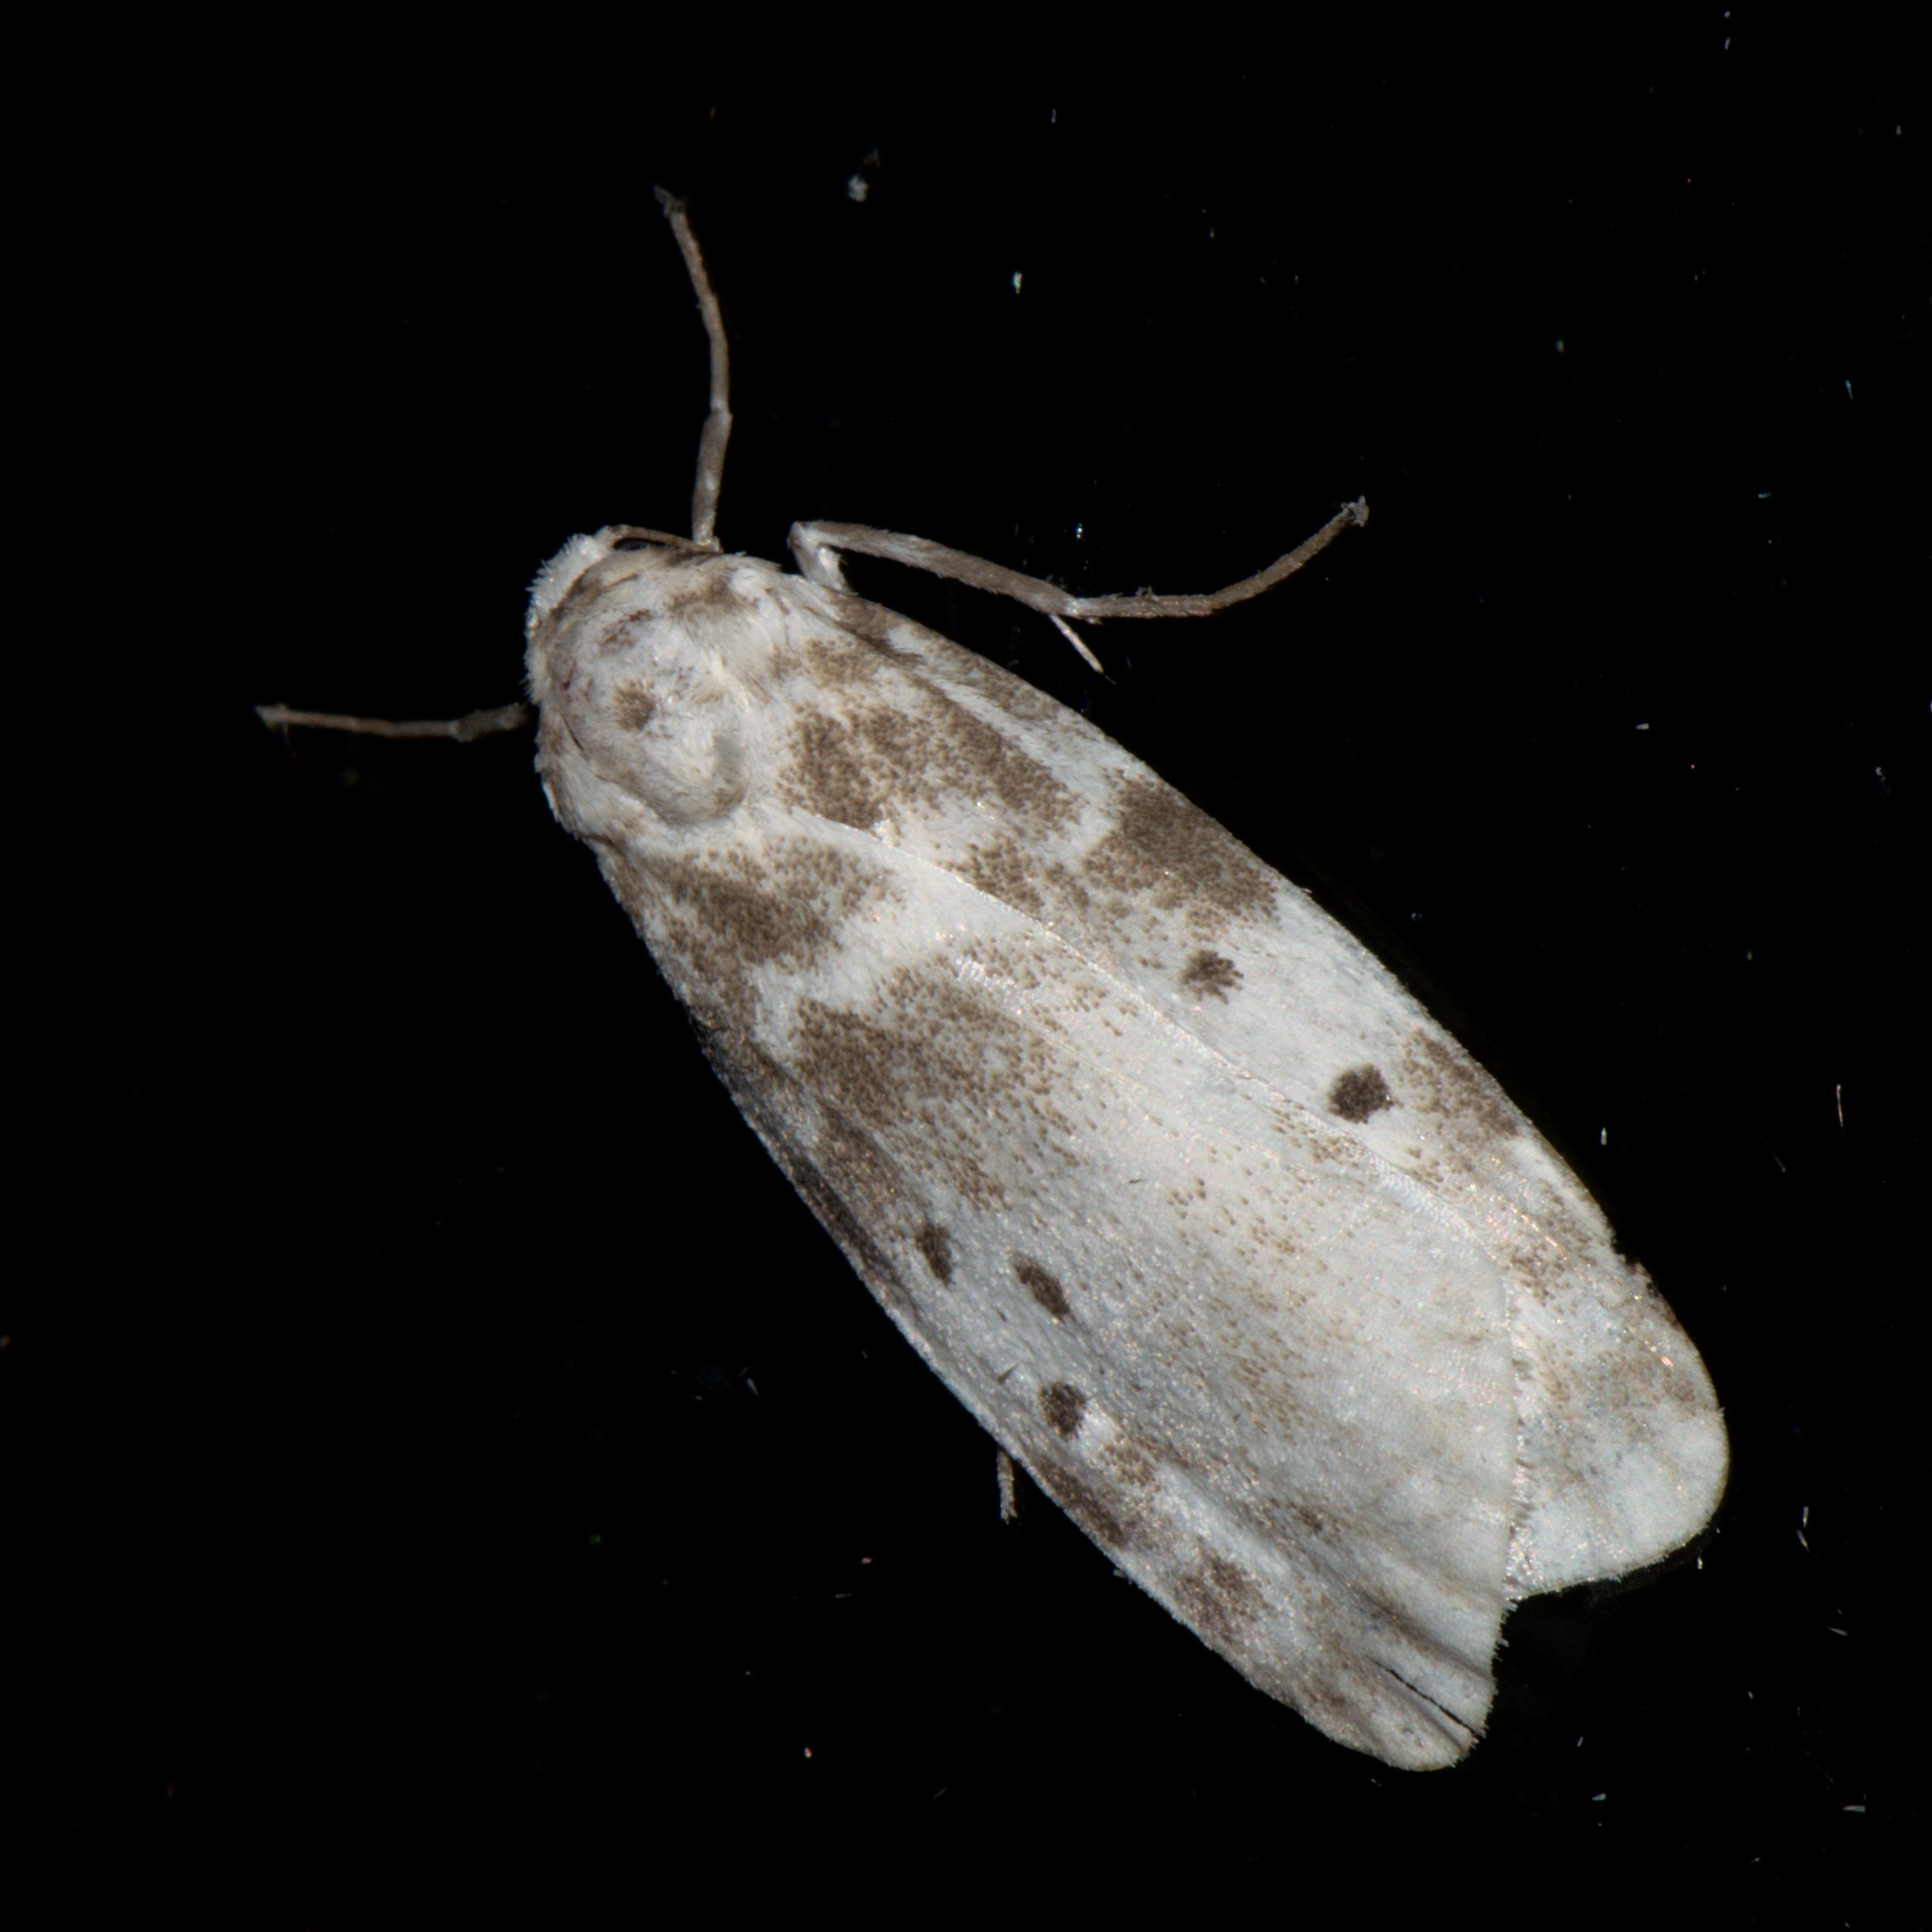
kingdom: Animalia
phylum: Arthropoda
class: Insecta
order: Lepidoptera
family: Erebidae
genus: Cyana
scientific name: Cyana detrita
